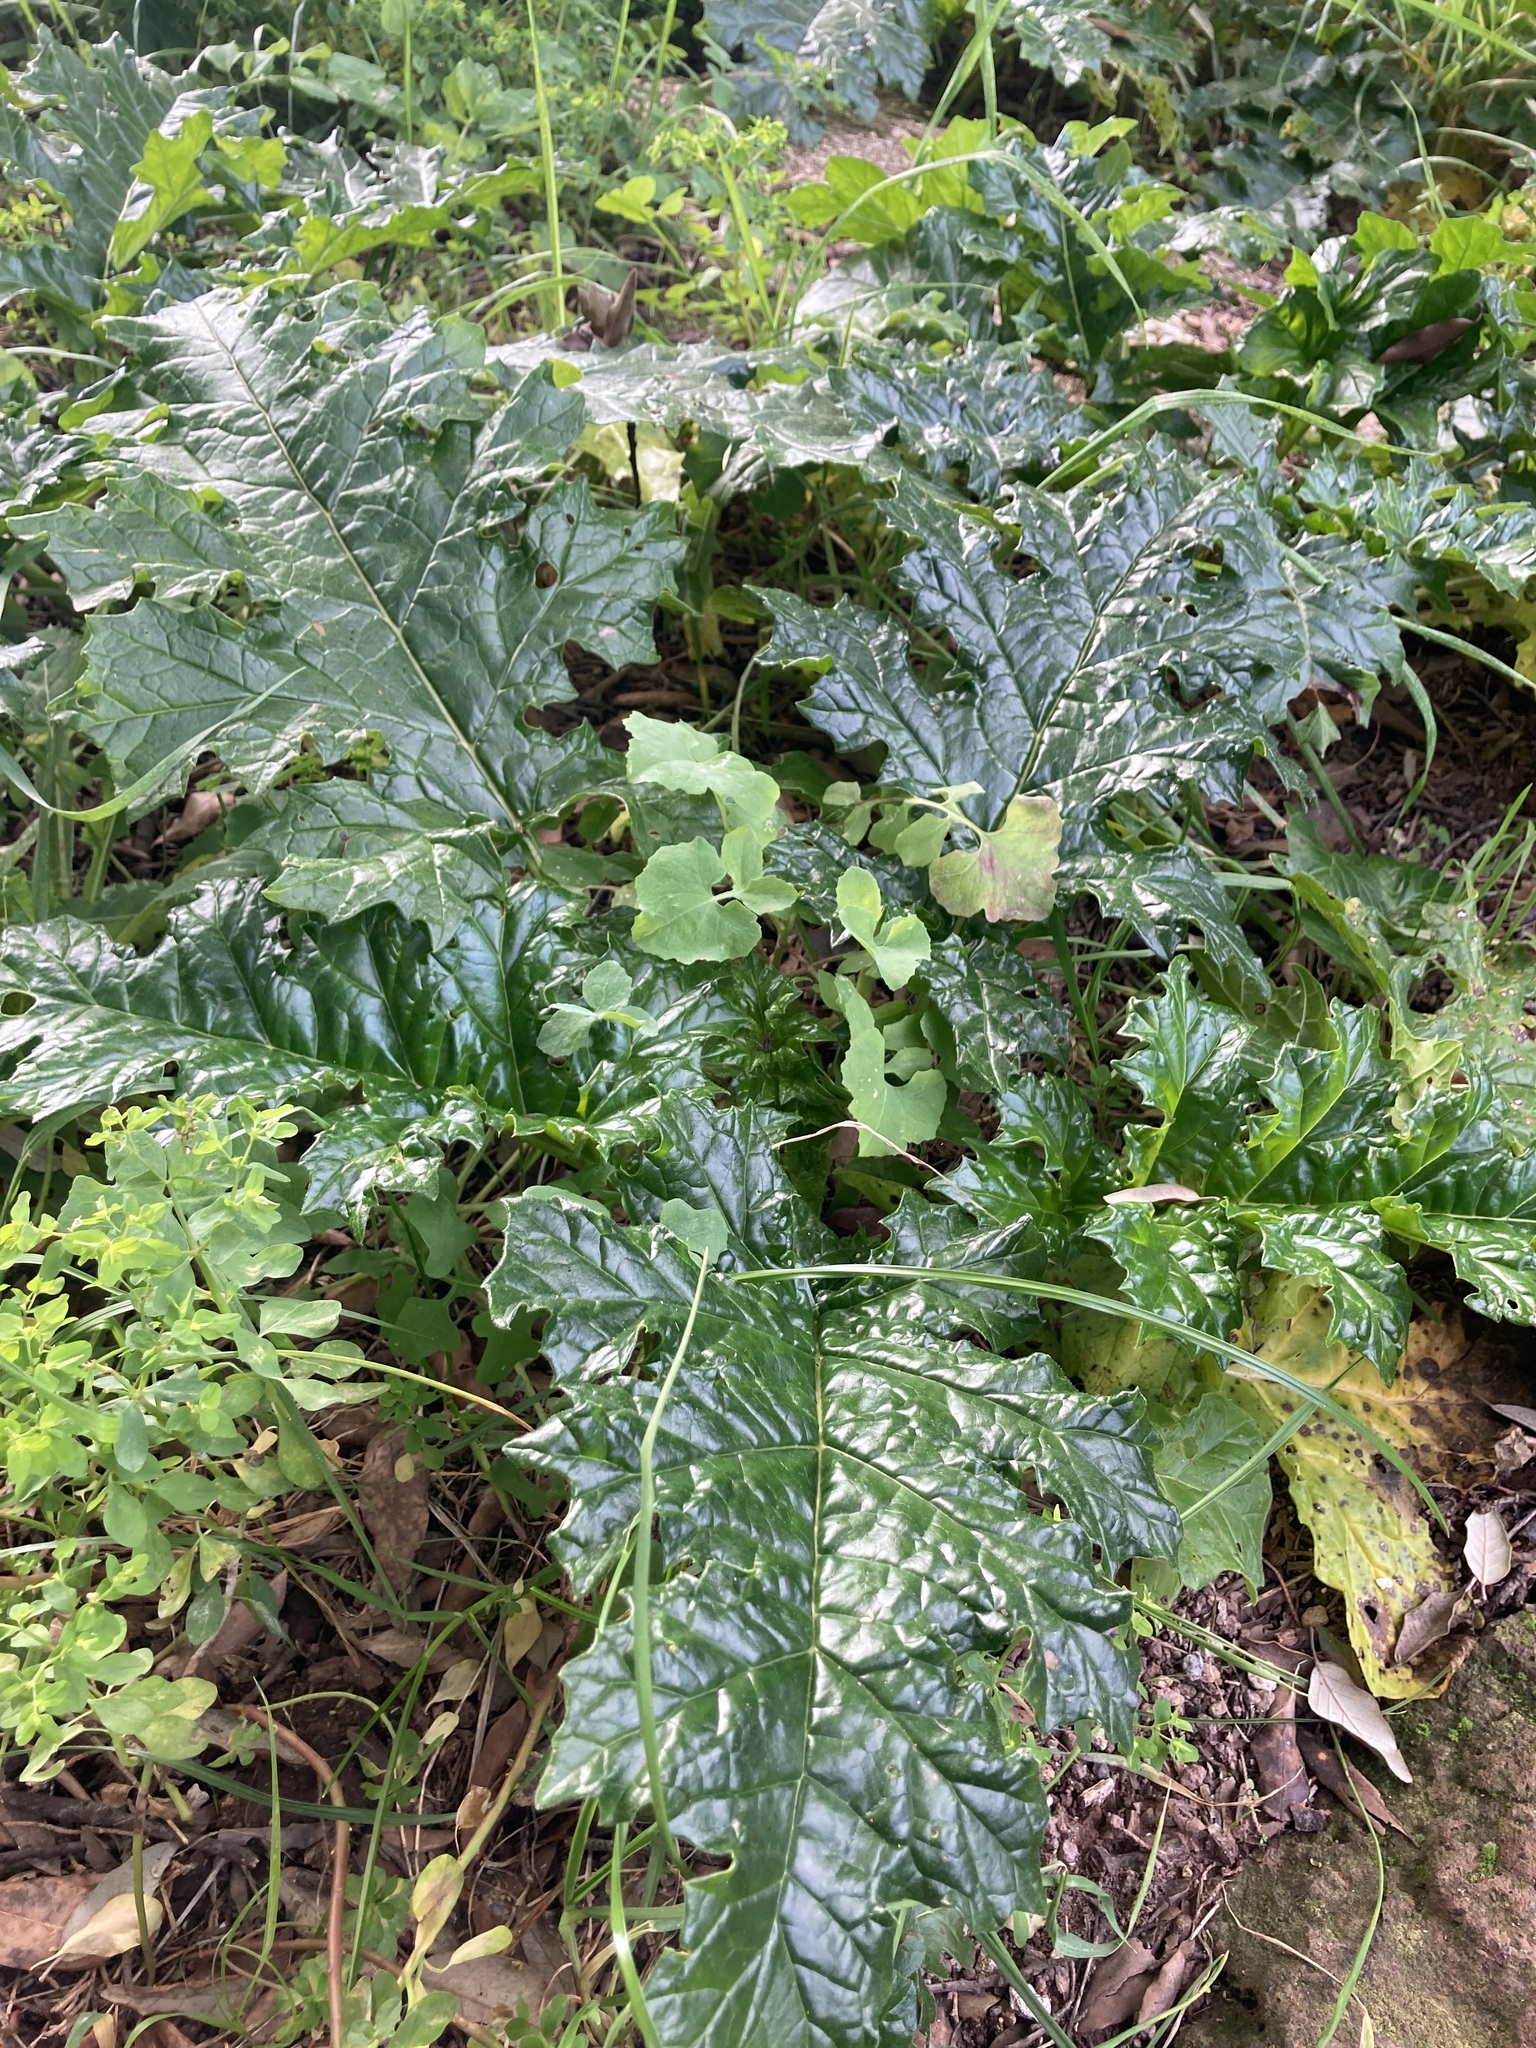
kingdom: Plantae
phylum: Tracheophyta
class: Magnoliopsida
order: Lamiales
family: Acanthaceae
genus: Acanthus
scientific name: Acanthus mollis
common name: Bear's-breech
